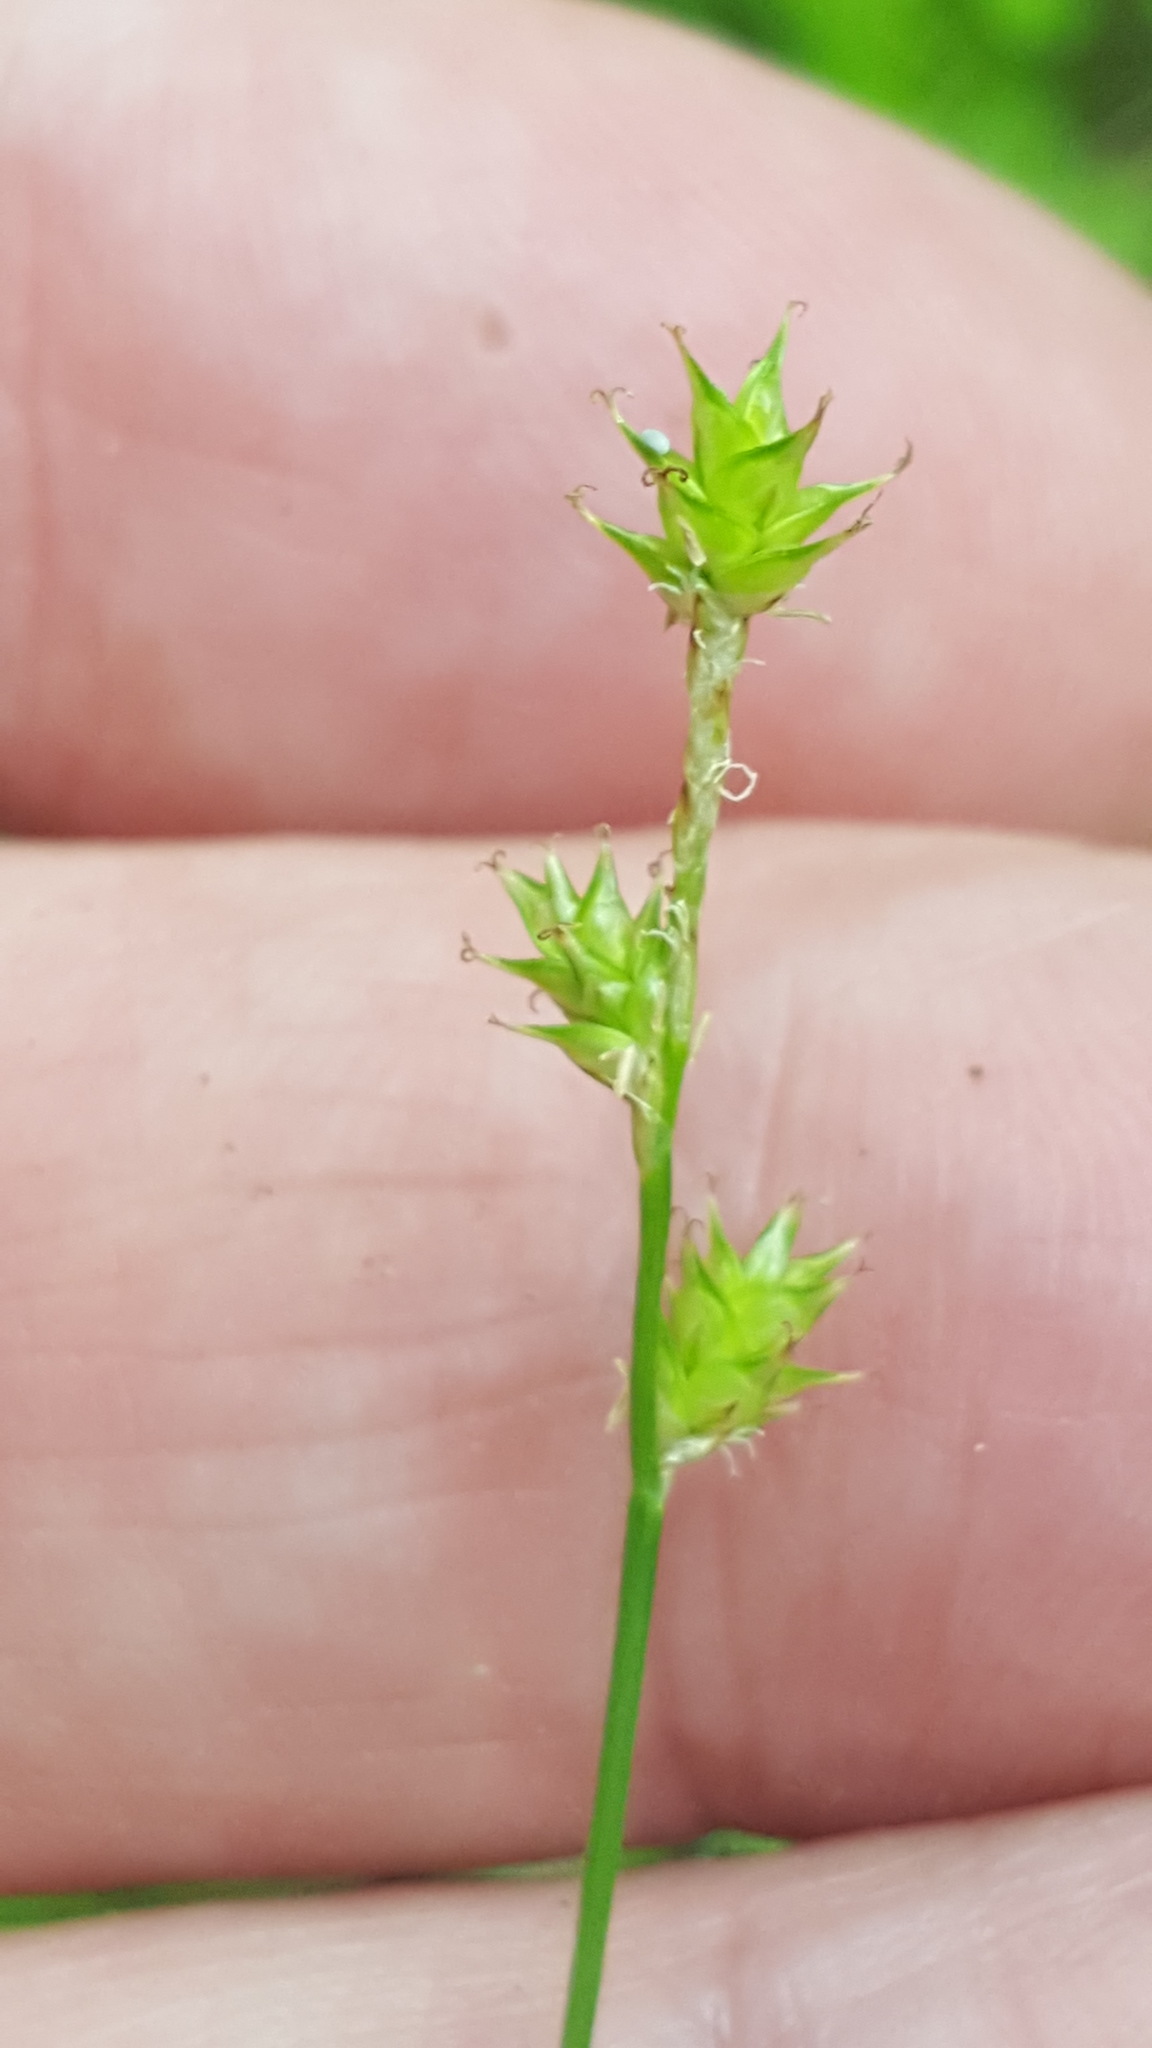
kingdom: Plantae
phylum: Tracheophyta
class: Liliopsida
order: Poales
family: Cyperaceae
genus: Carex
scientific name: Carex interior
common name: Inland sedge
